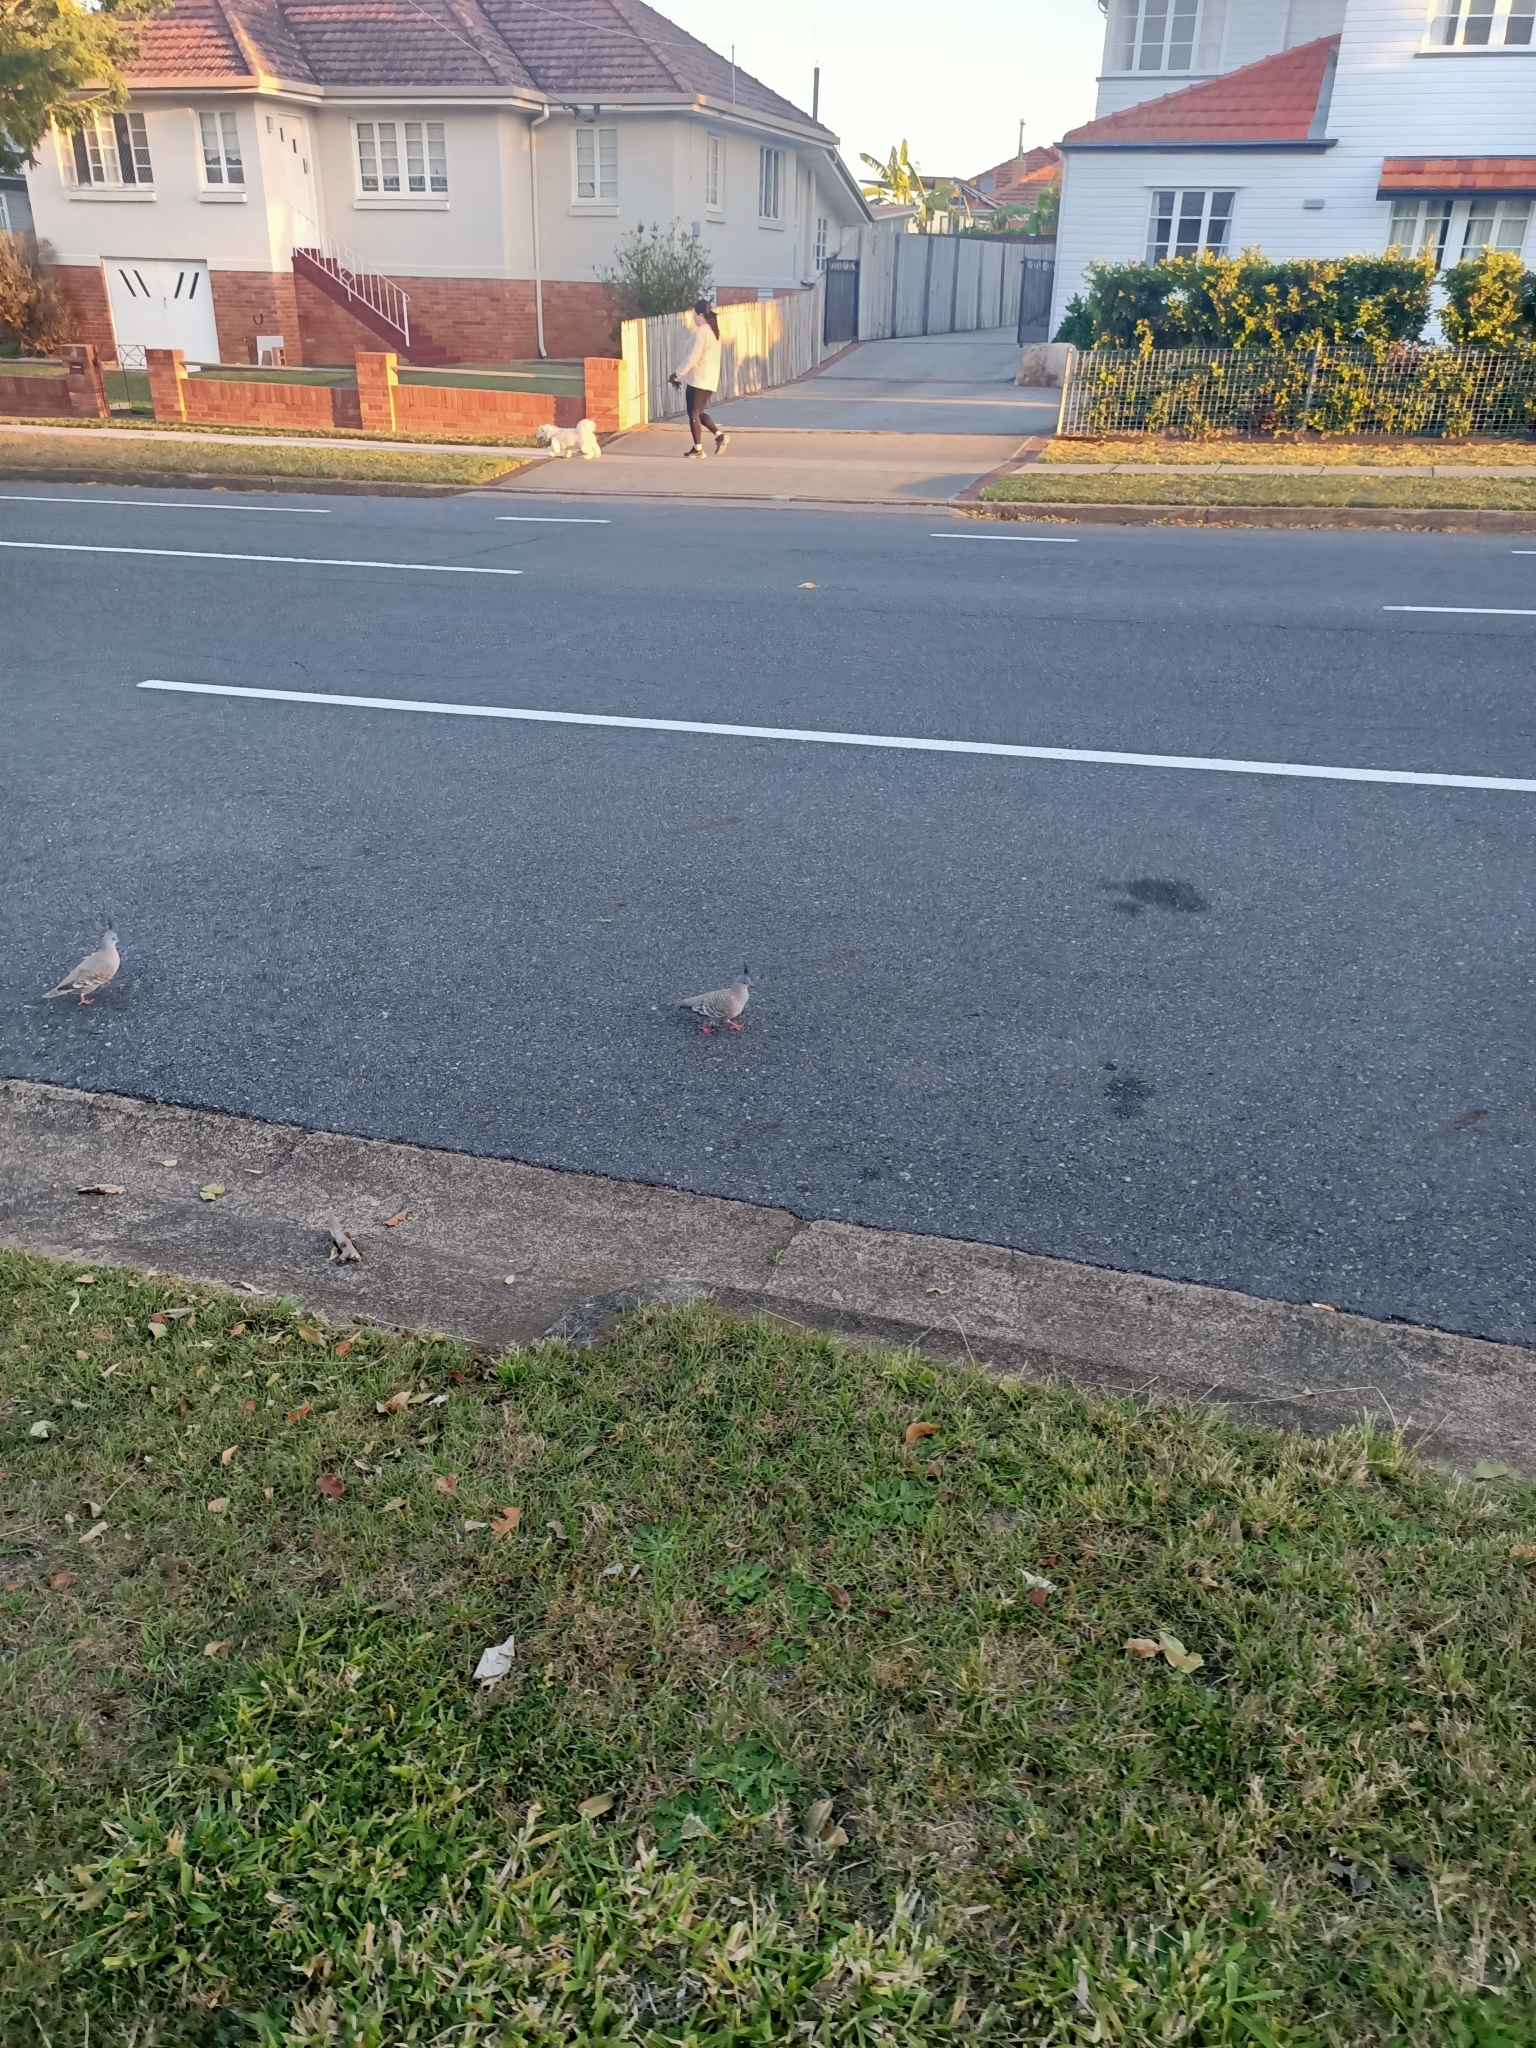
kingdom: Animalia
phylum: Chordata
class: Aves
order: Columbiformes
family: Columbidae
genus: Ocyphaps
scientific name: Ocyphaps lophotes
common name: Crested pigeon
